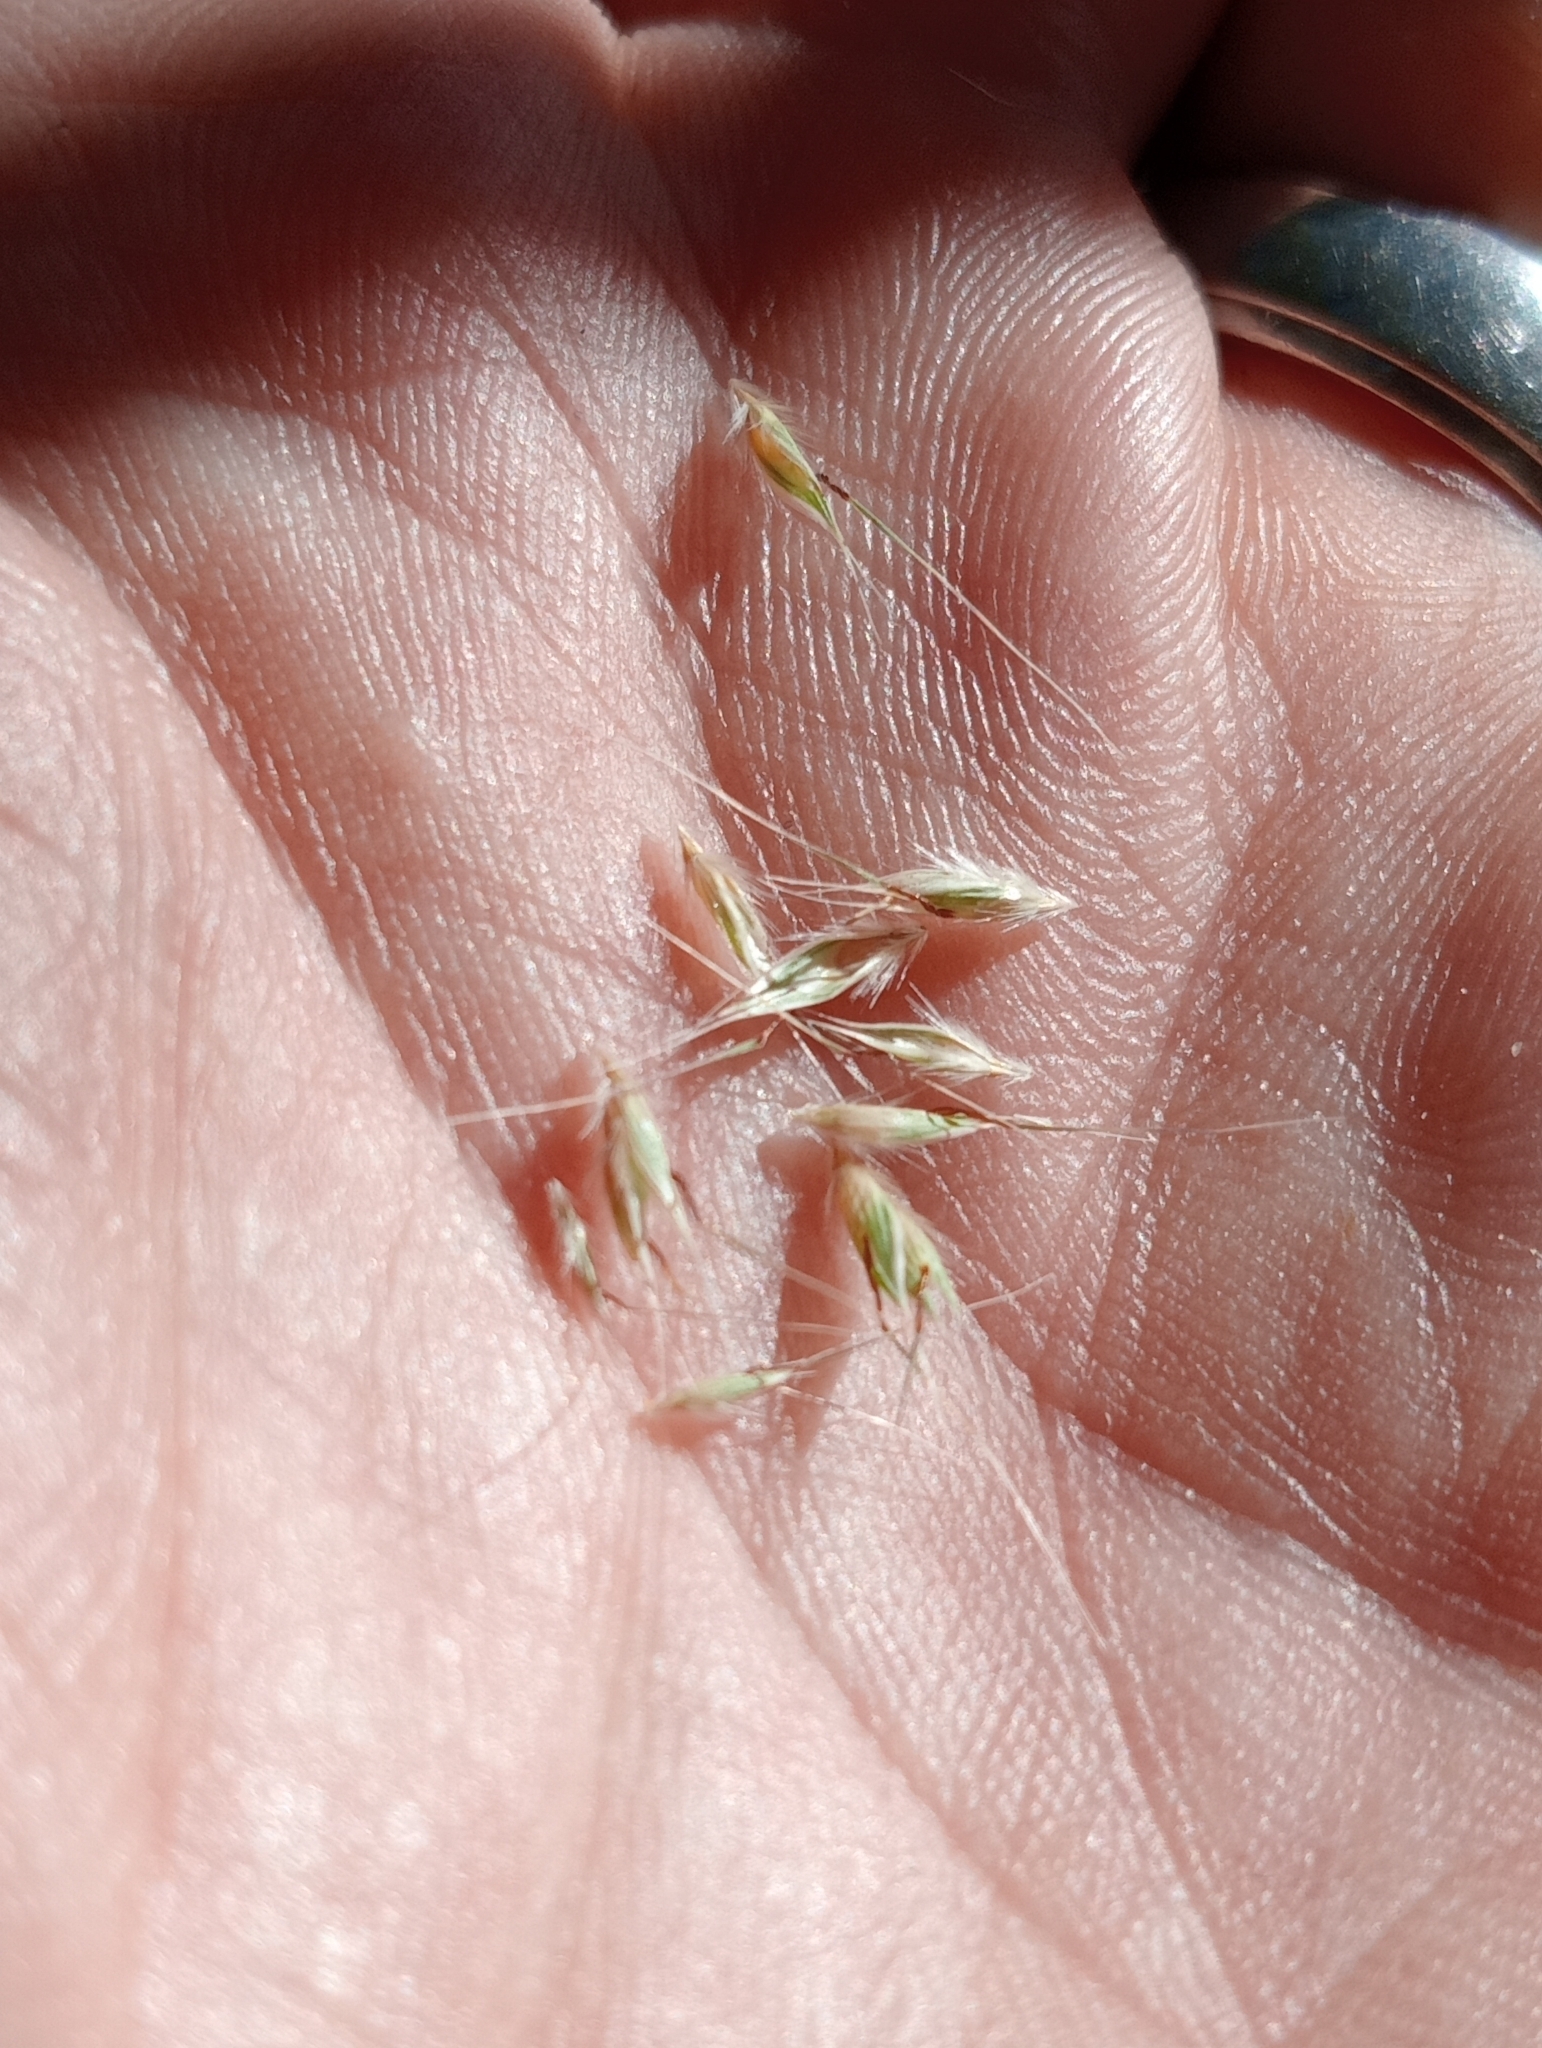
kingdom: Plantae
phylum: Tracheophyta
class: Liliopsida
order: Poales
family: Poaceae
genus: Rytidosperma
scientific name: Rytidosperma clavatum
